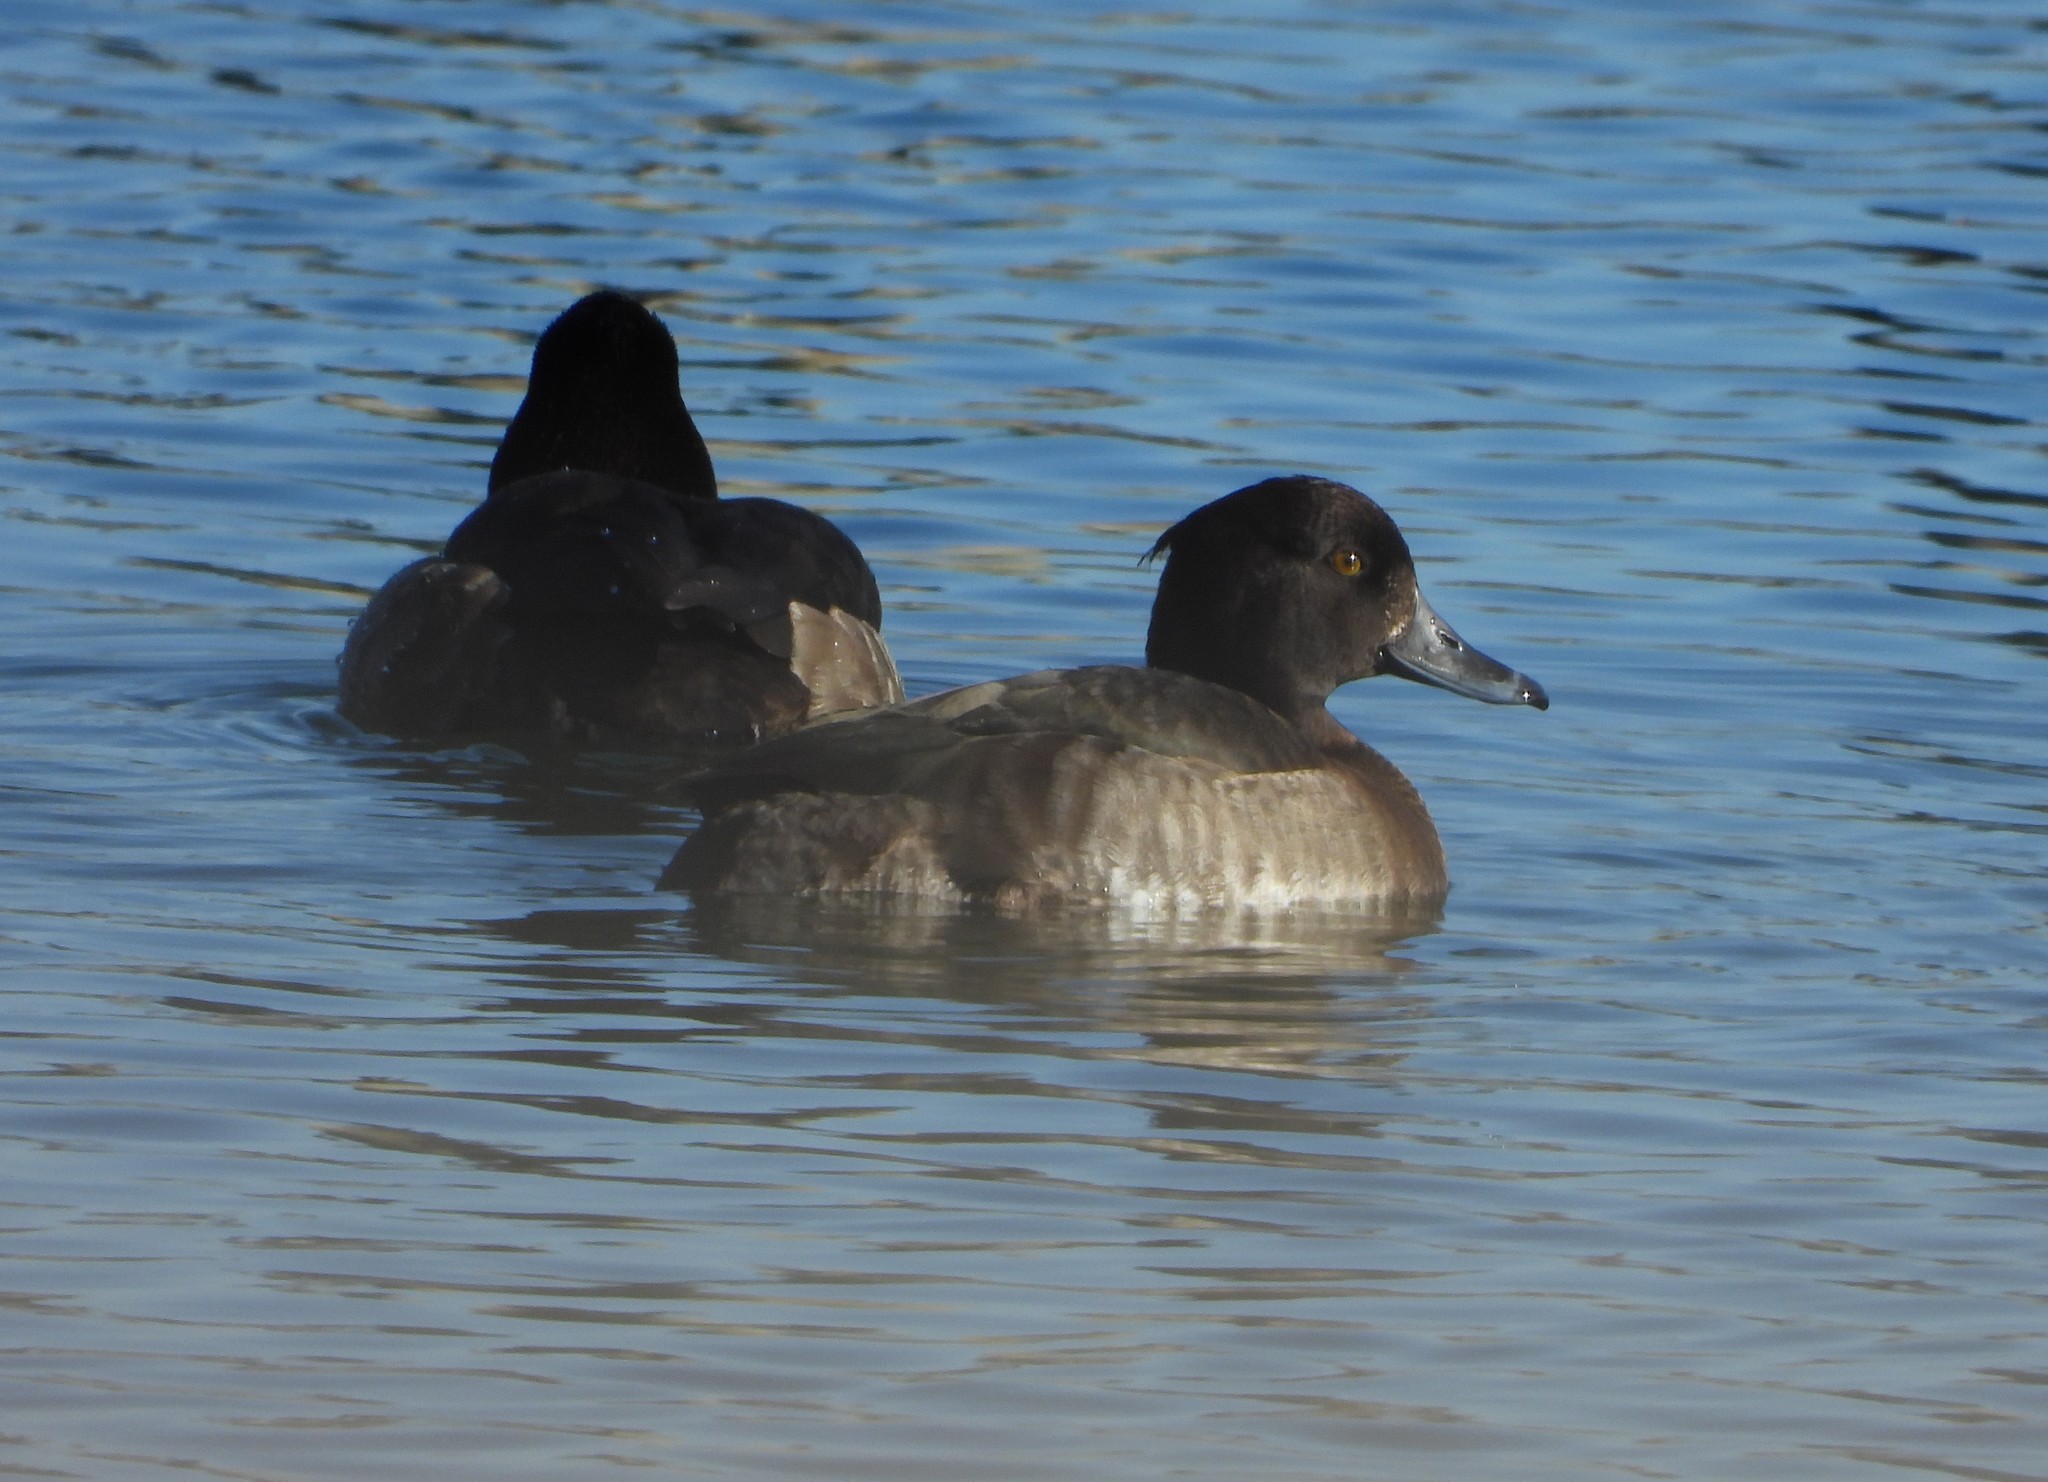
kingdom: Animalia
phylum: Chordata
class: Aves
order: Anseriformes
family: Anatidae
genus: Aythya
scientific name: Aythya fuligula
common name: Tufted duck
